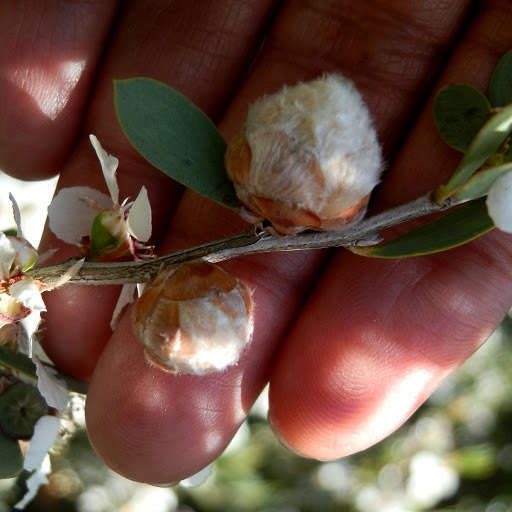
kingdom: Animalia
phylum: Arthropoda
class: Insecta
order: Diptera
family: Cecidomyiidae
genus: Dasineura
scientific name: Dasineura
